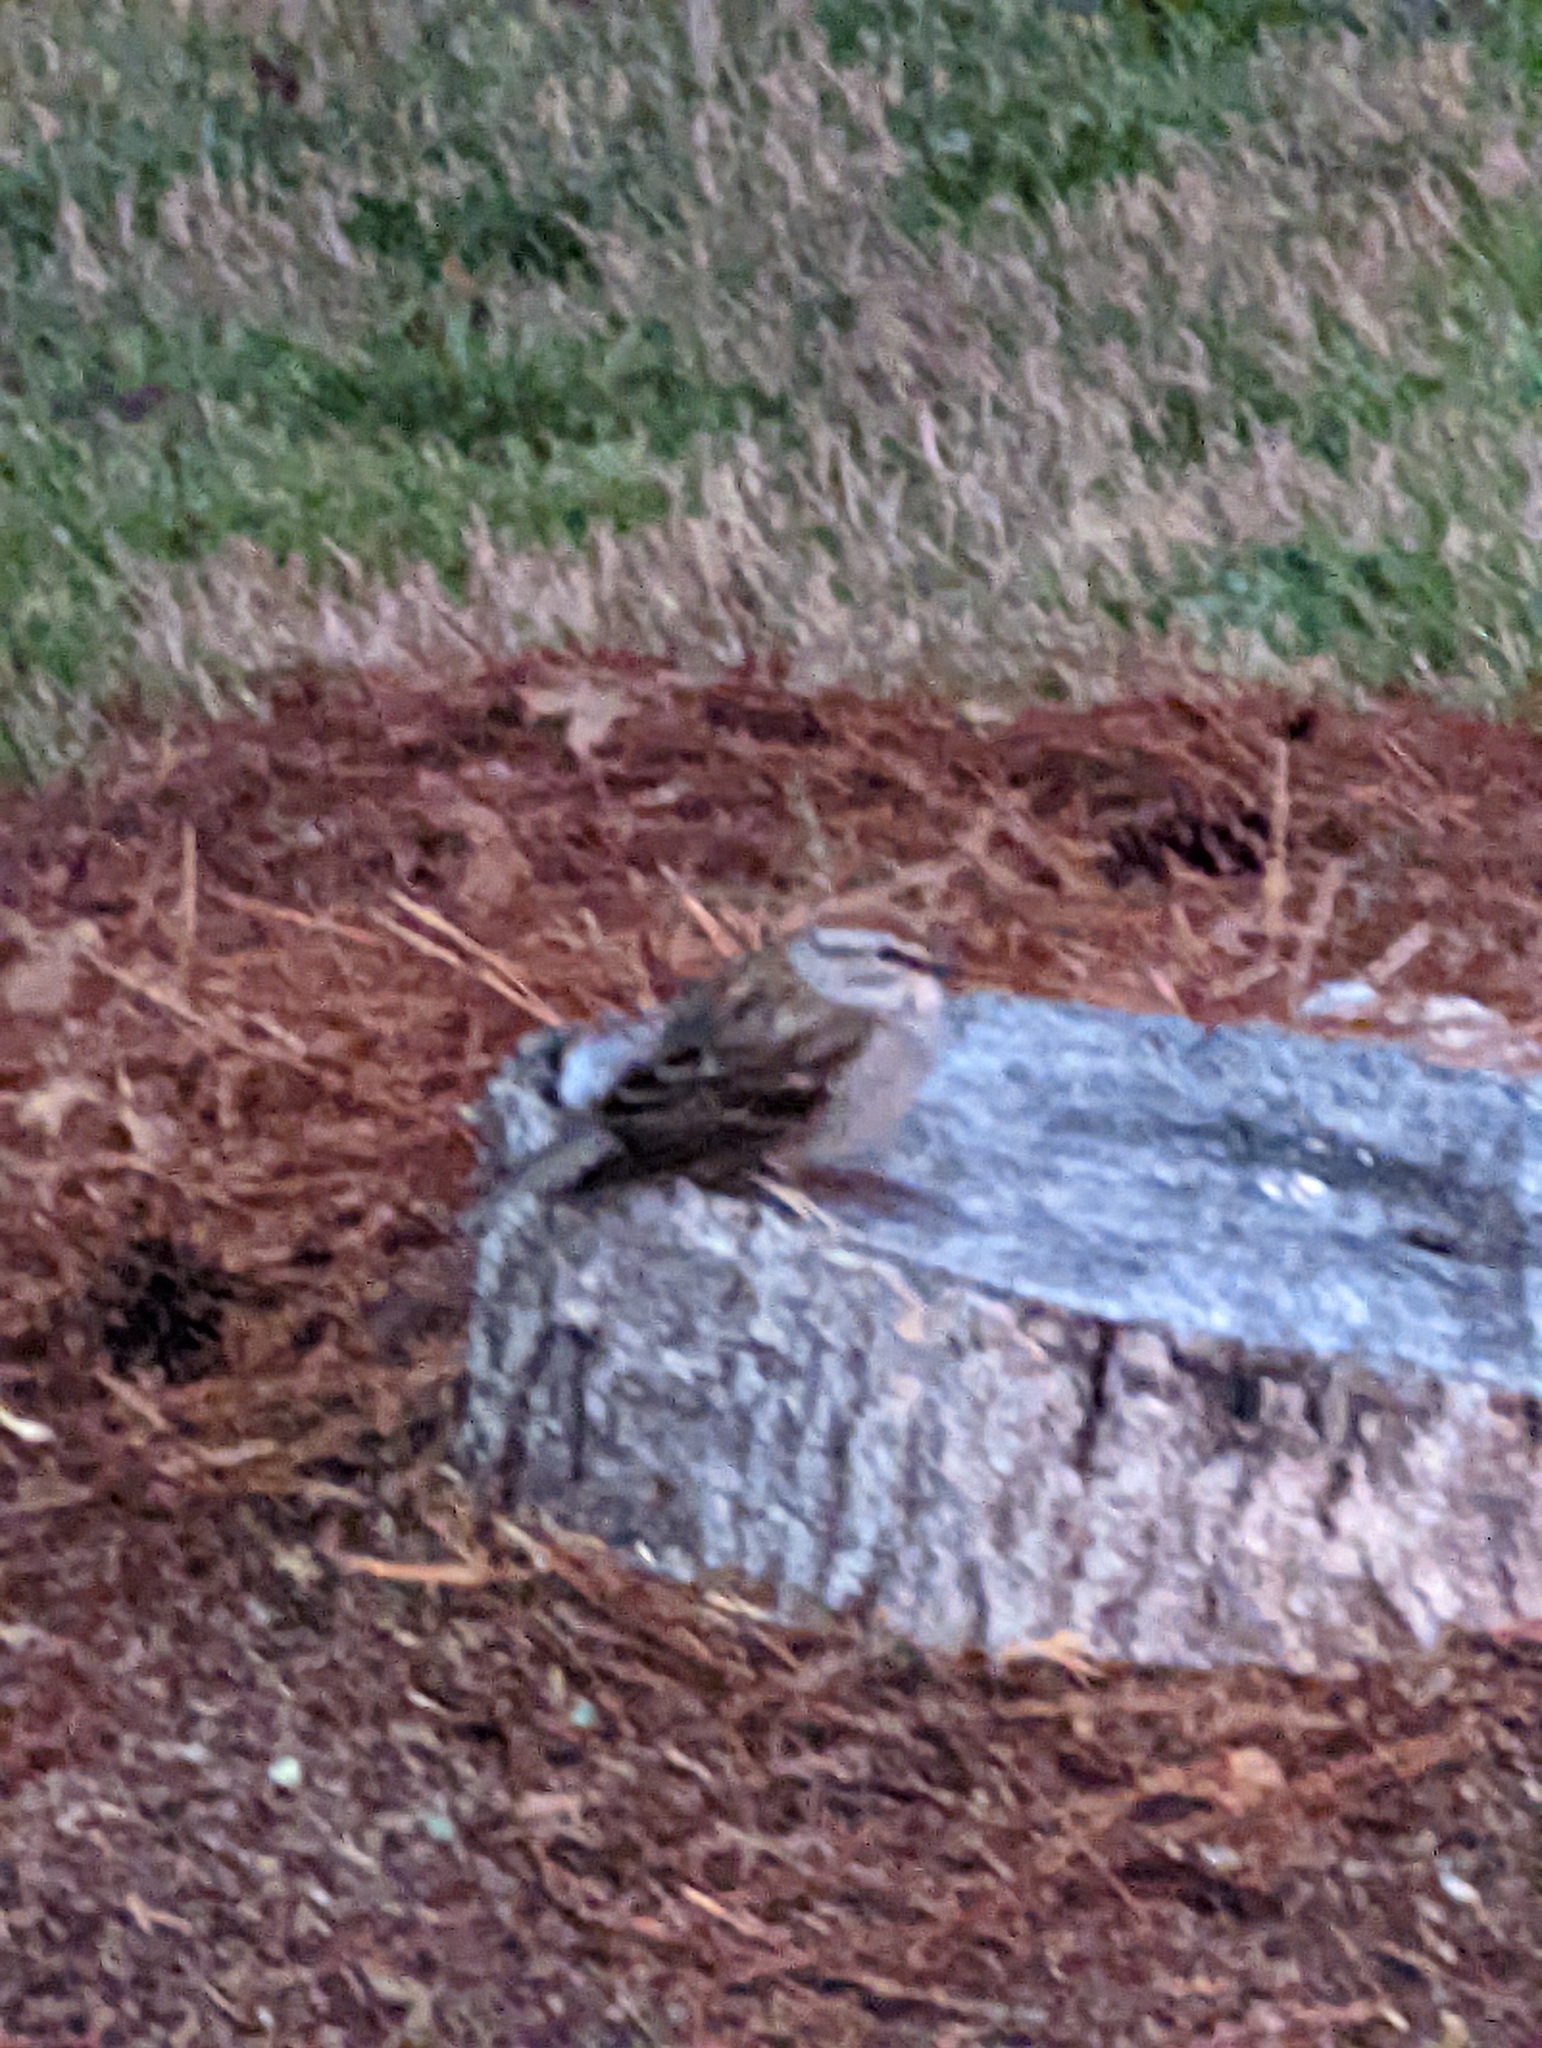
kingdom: Animalia
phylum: Chordata
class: Aves
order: Passeriformes
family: Passerellidae
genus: Spizella
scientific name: Spizella passerina
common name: Chipping sparrow
